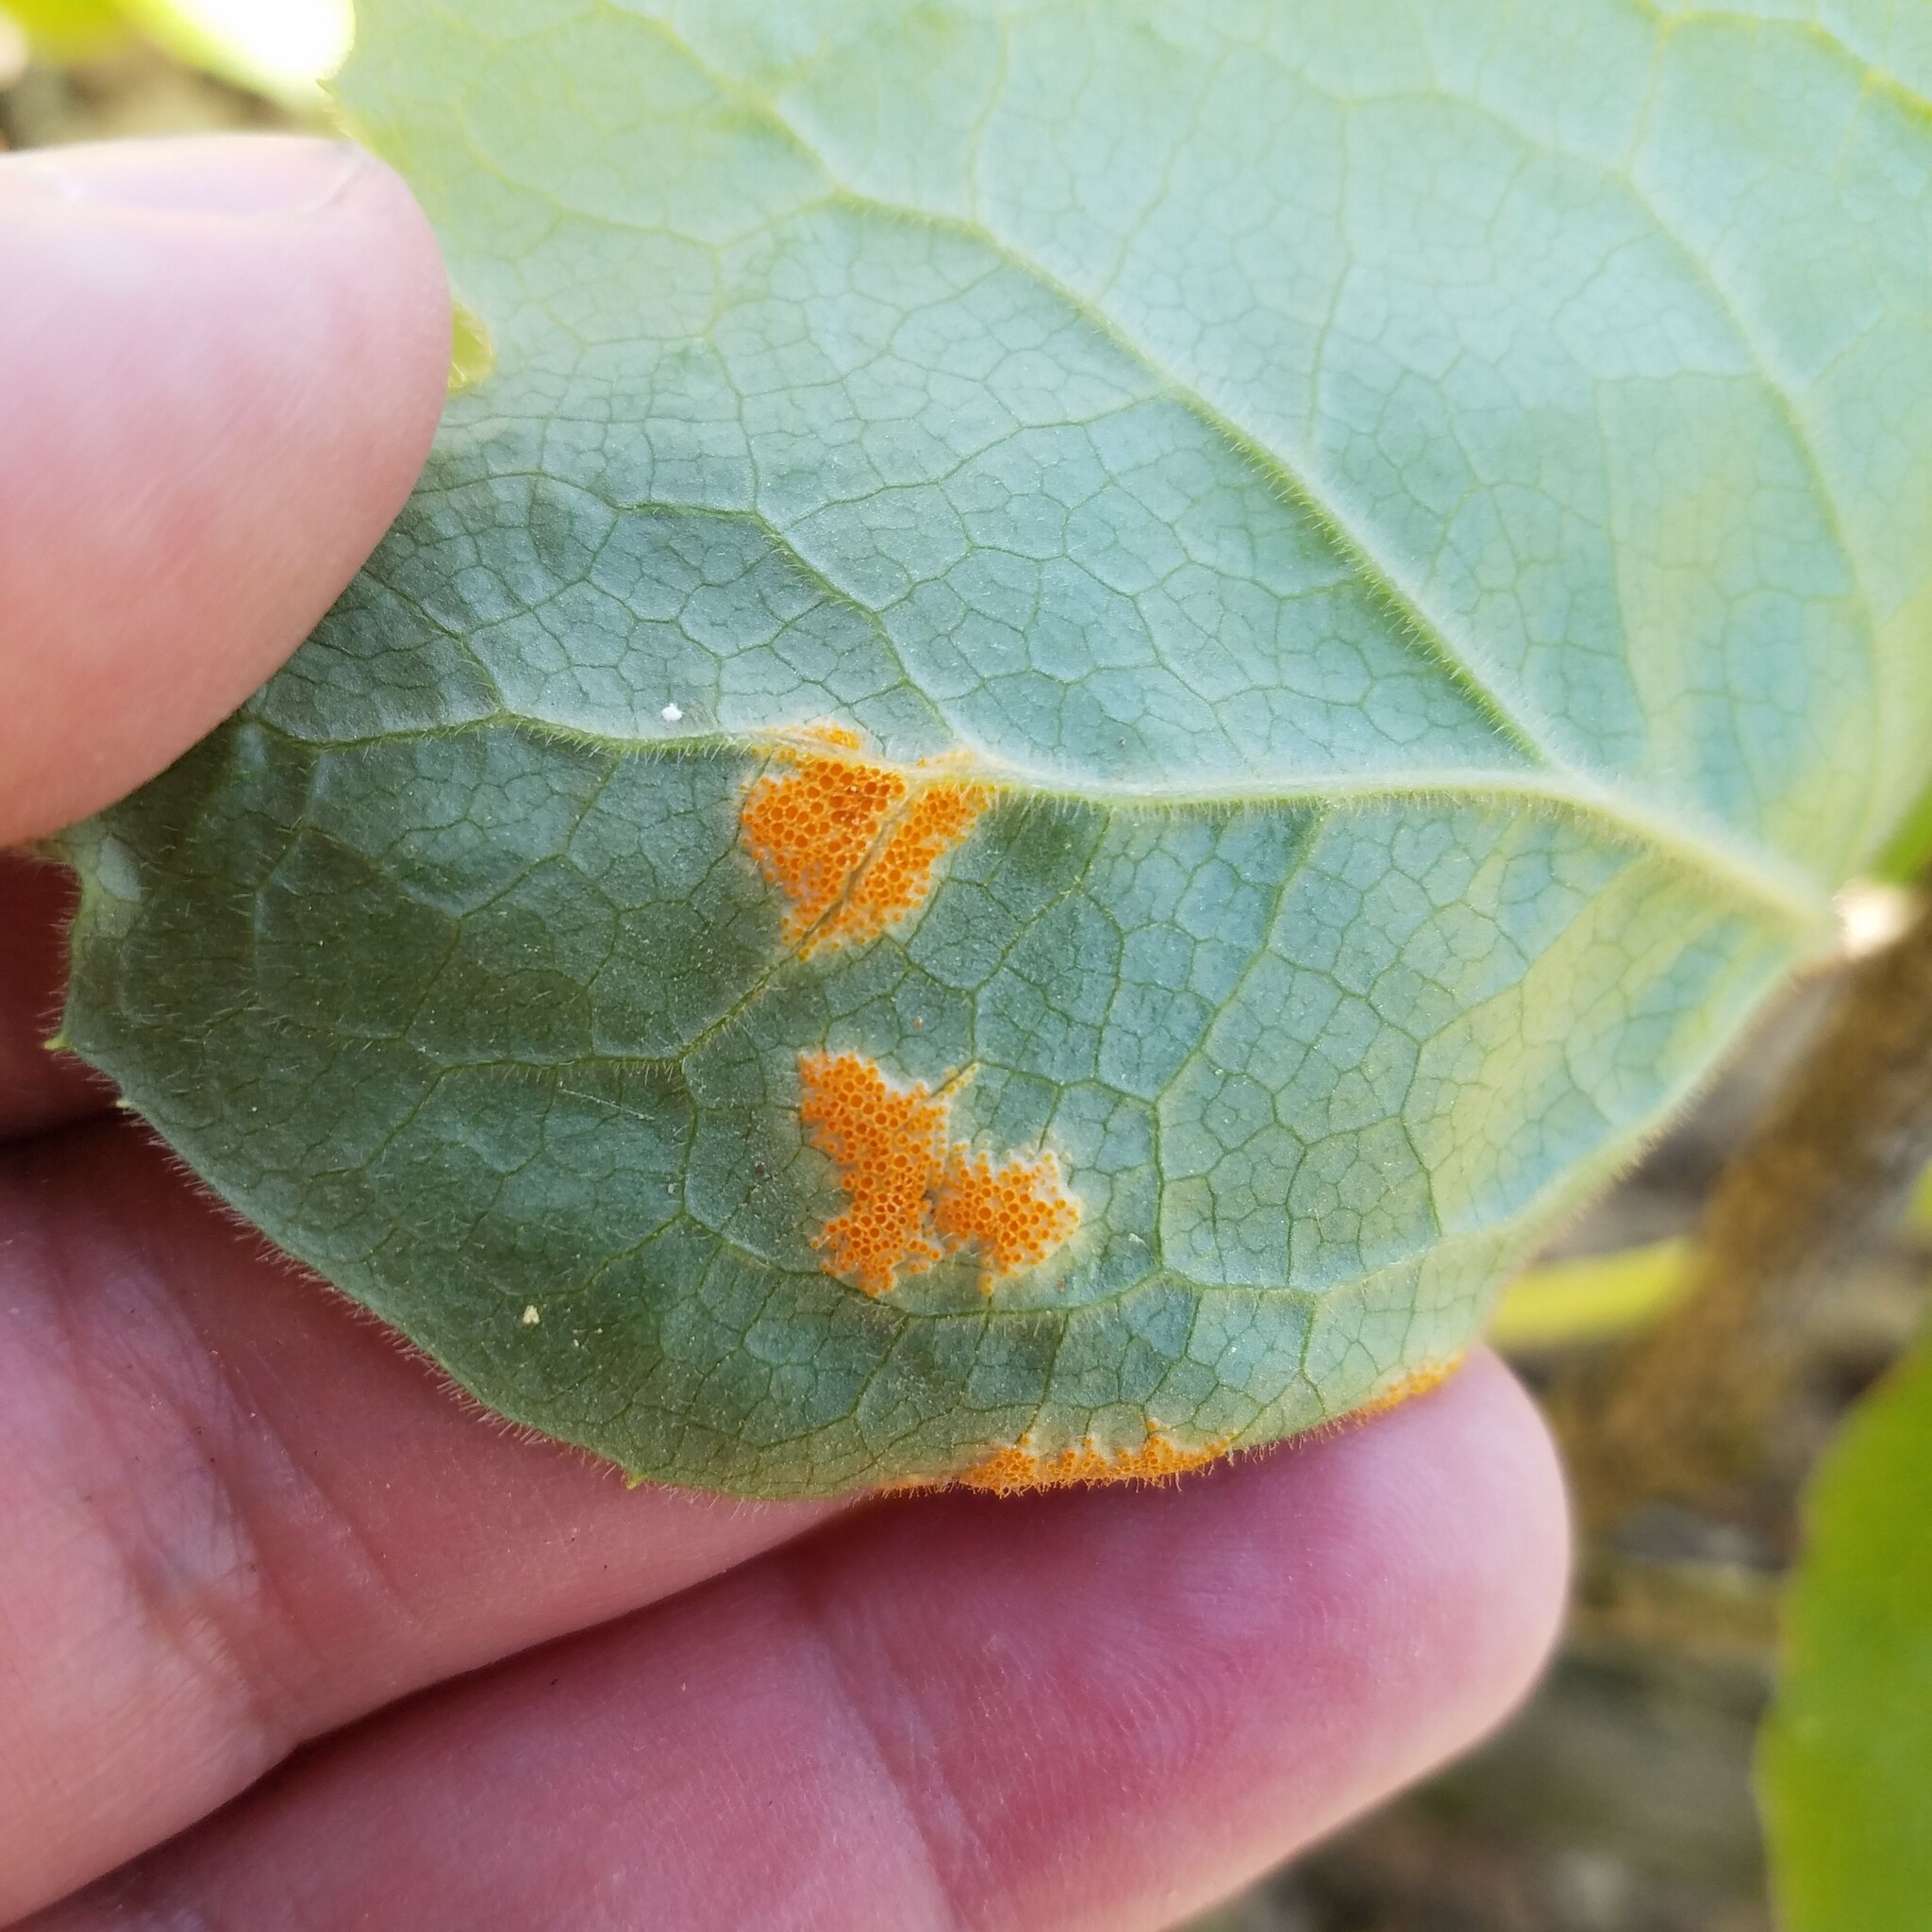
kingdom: Fungi
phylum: Basidiomycota
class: Pucciniomycetes
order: Pucciniales
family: Pucciniaceae
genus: Puccinia
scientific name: Puccinia podophylli
